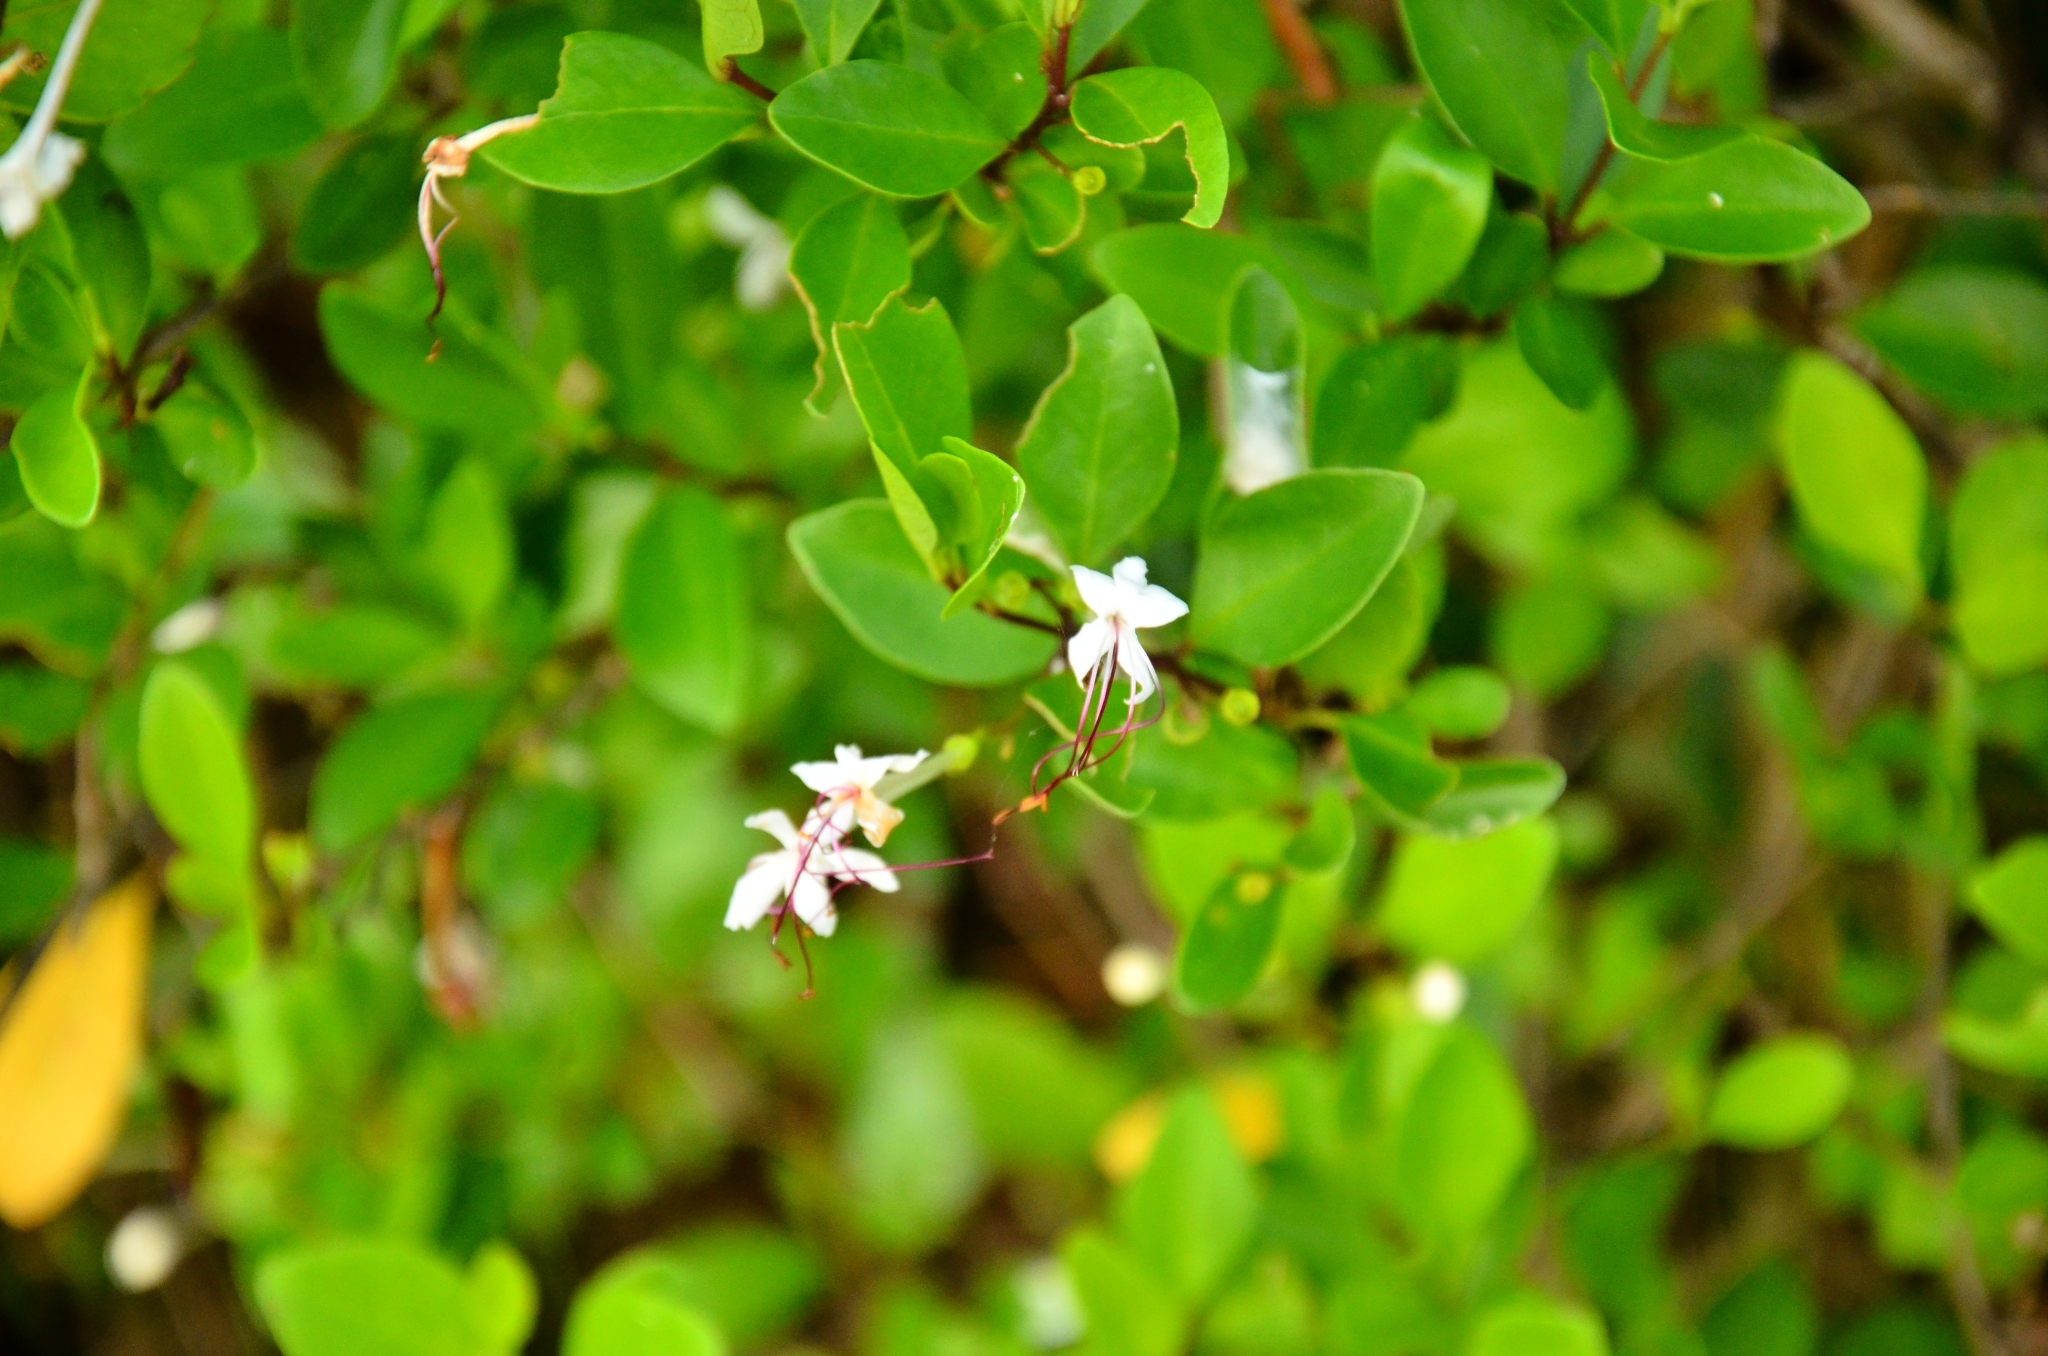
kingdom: Plantae
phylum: Tracheophyta
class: Magnoliopsida
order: Lamiales
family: Lamiaceae
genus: Volkameria
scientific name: Volkameria inermis
